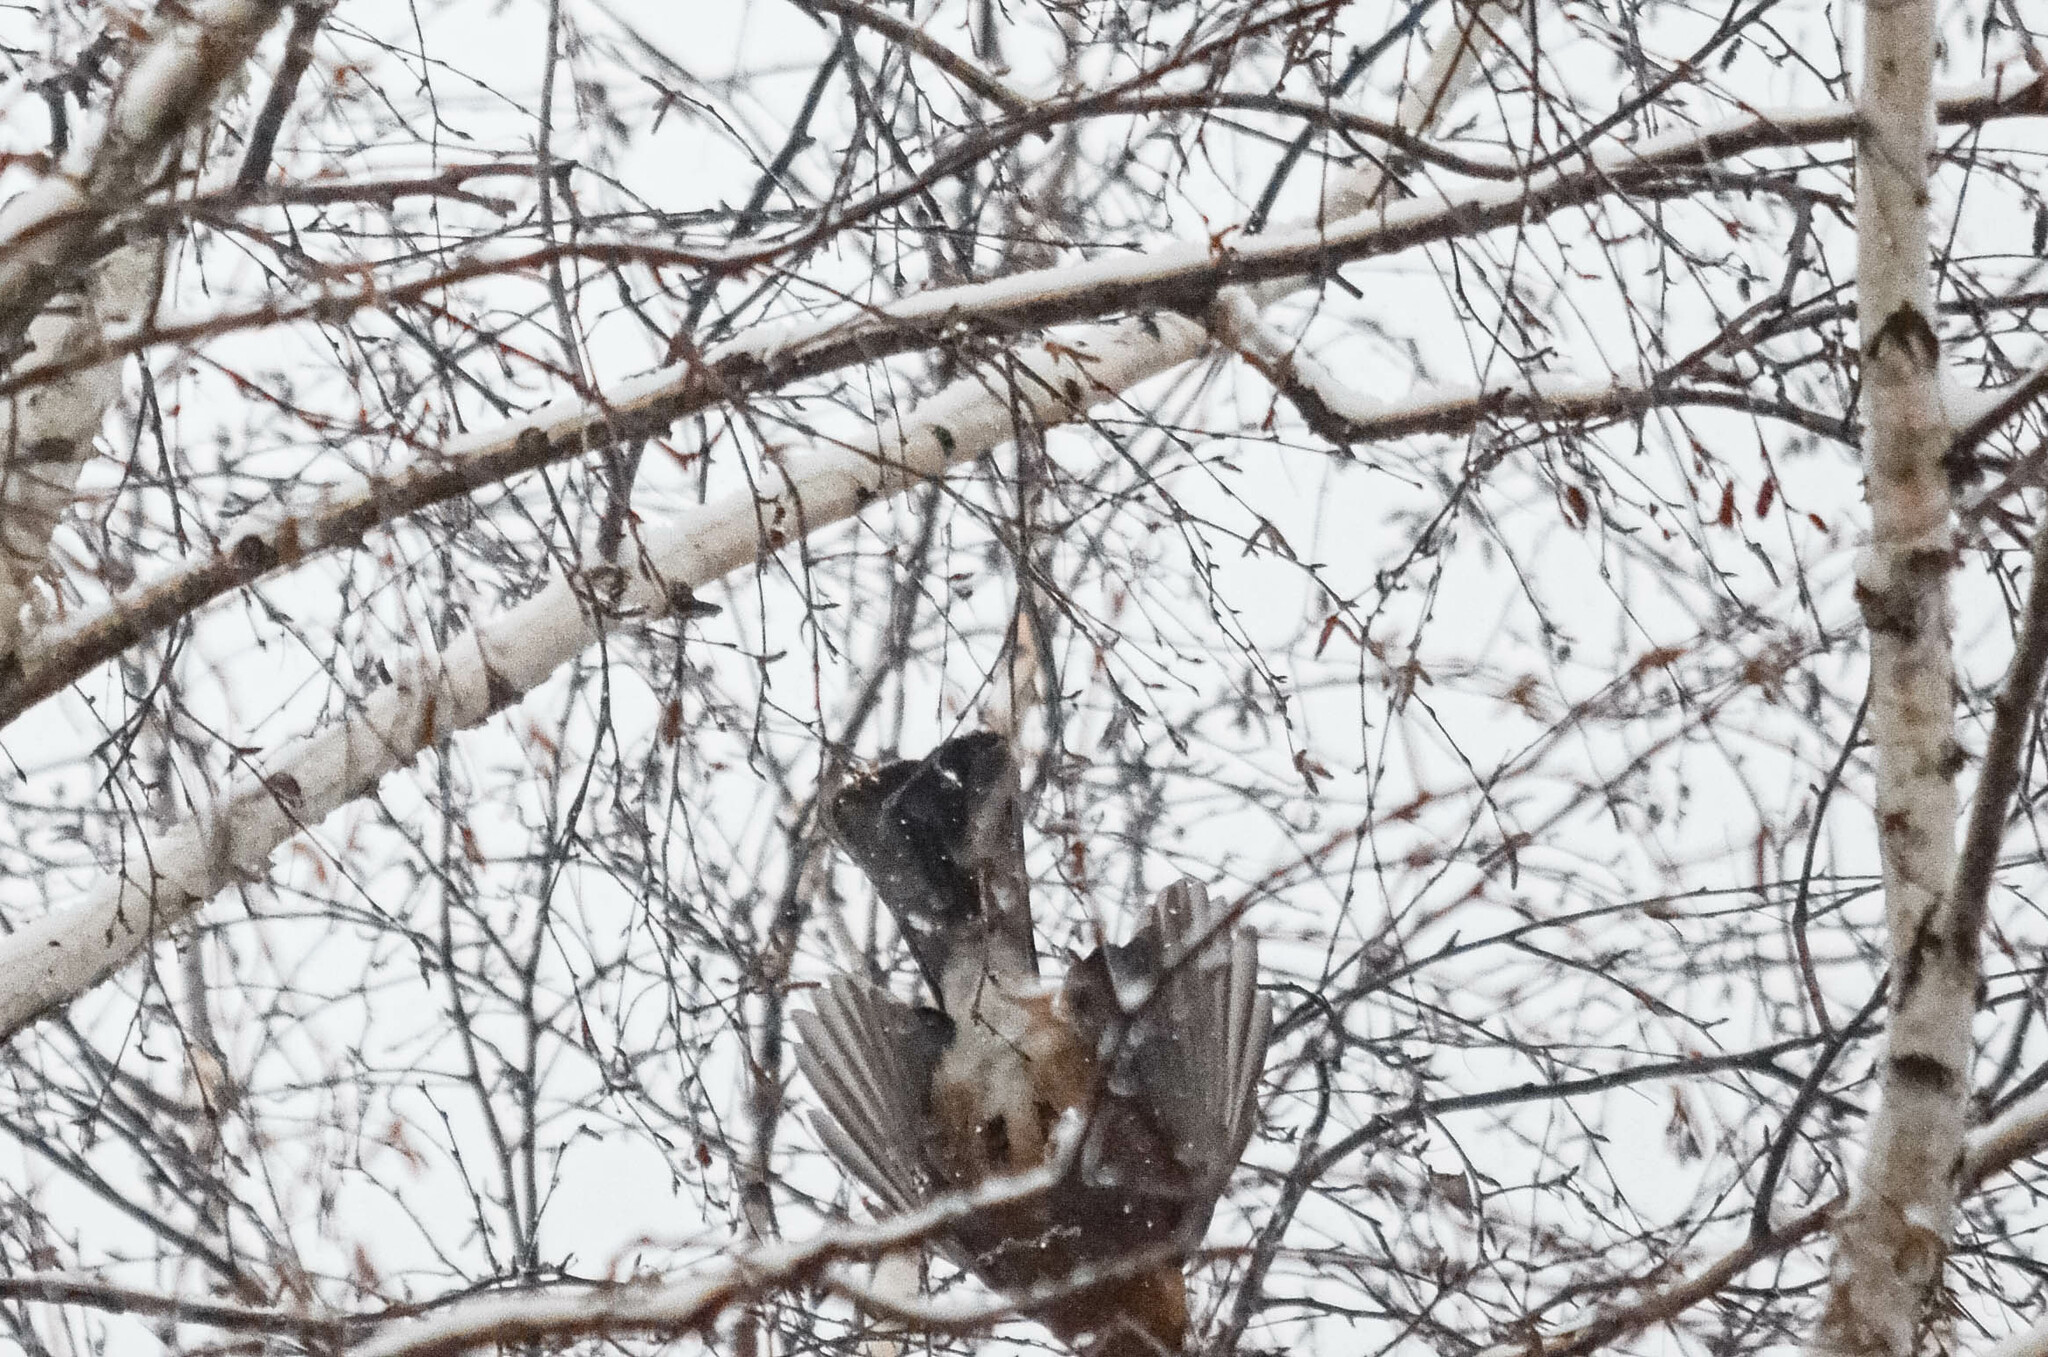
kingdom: Animalia
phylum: Chordata
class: Aves
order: Passeriformes
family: Corvidae
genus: Garrulus
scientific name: Garrulus glandarius
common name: Eurasian jay
